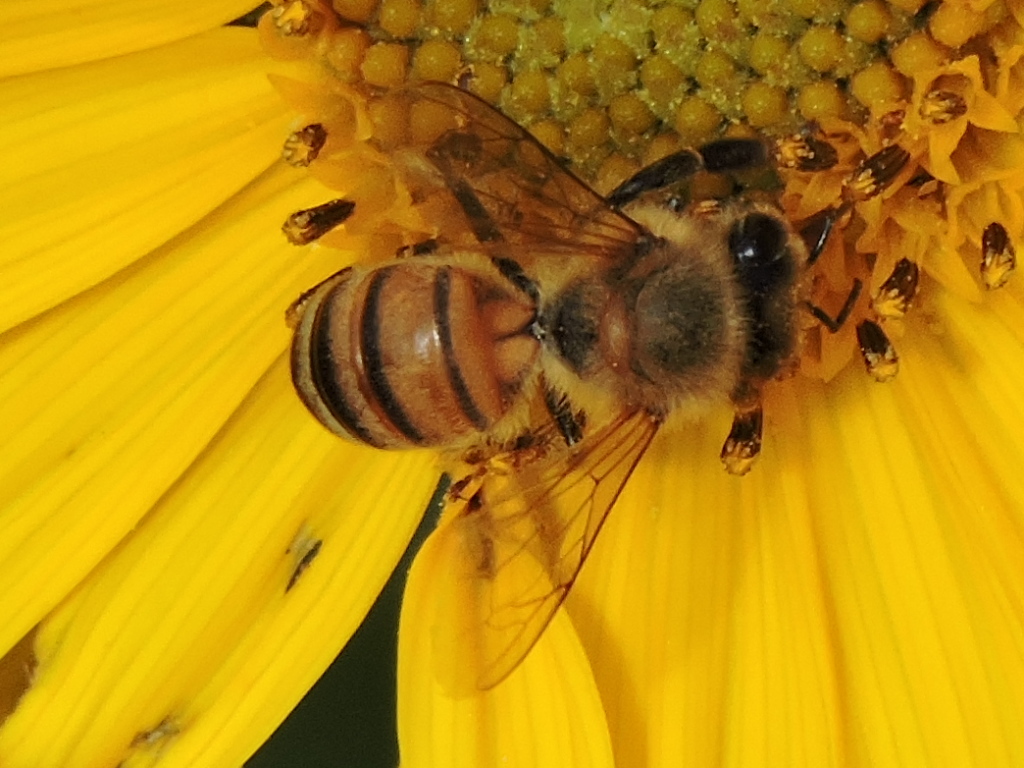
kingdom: Animalia
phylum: Arthropoda
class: Insecta
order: Hymenoptera
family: Apidae
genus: Apis
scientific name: Apis mellifera
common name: Honey bee
